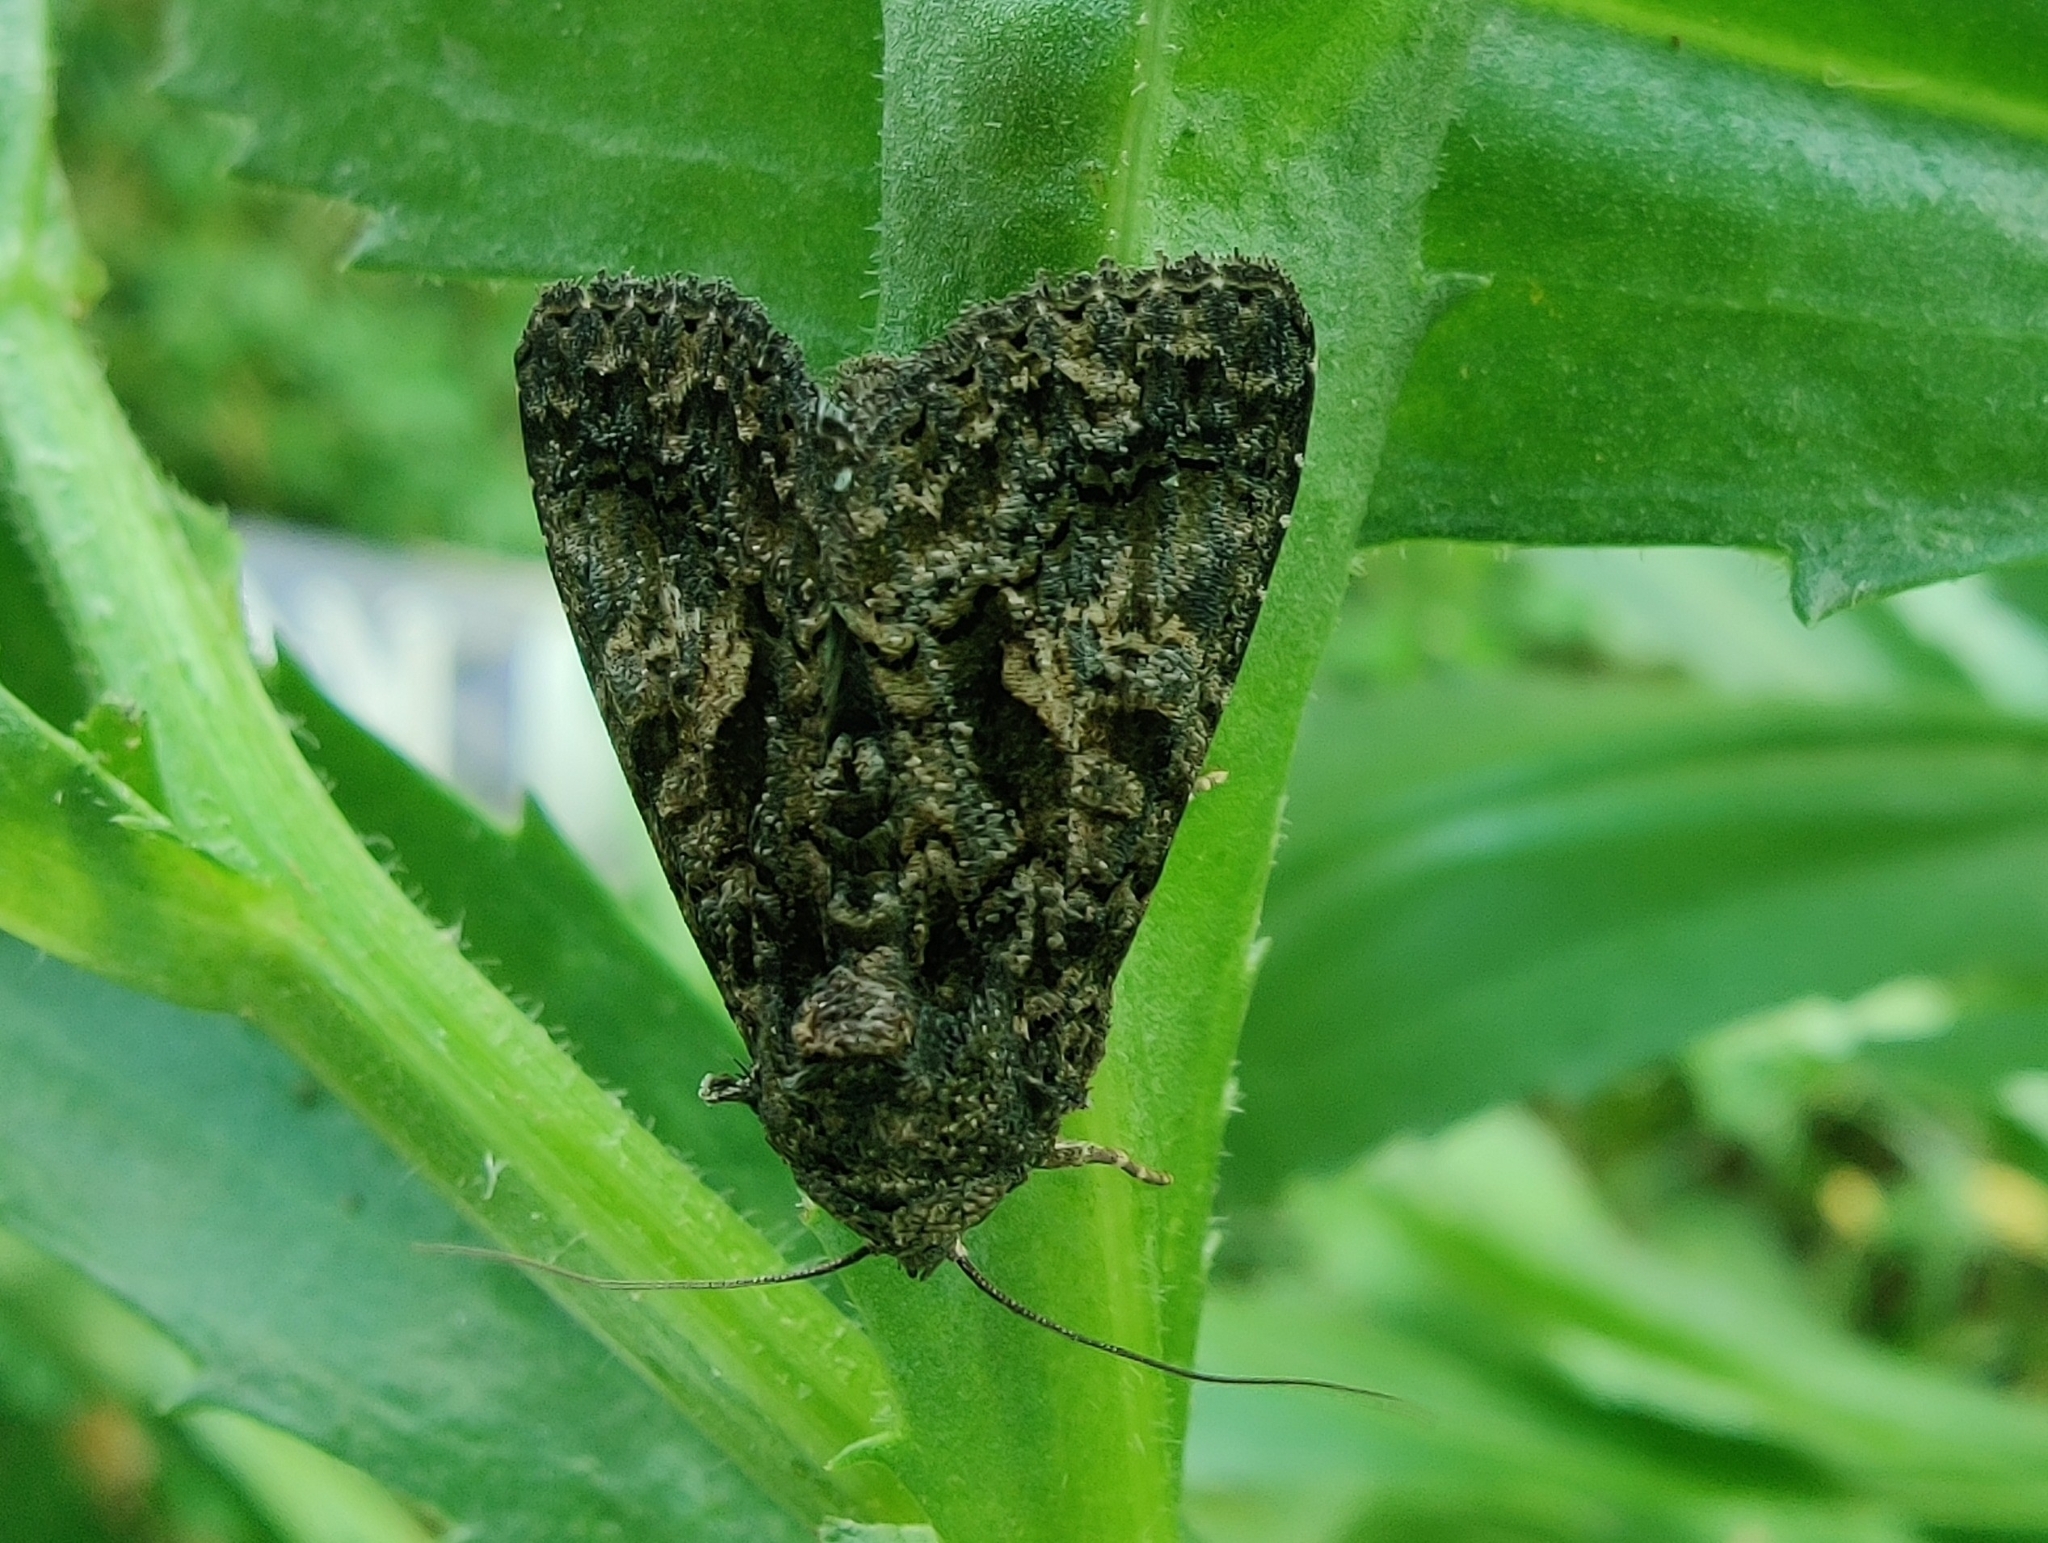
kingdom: Animalia
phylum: Arthropoda
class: Insecta
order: Lepidoptera
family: Noctuidae
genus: Aedia
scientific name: Aedia leucomelas
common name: Sorcerer
